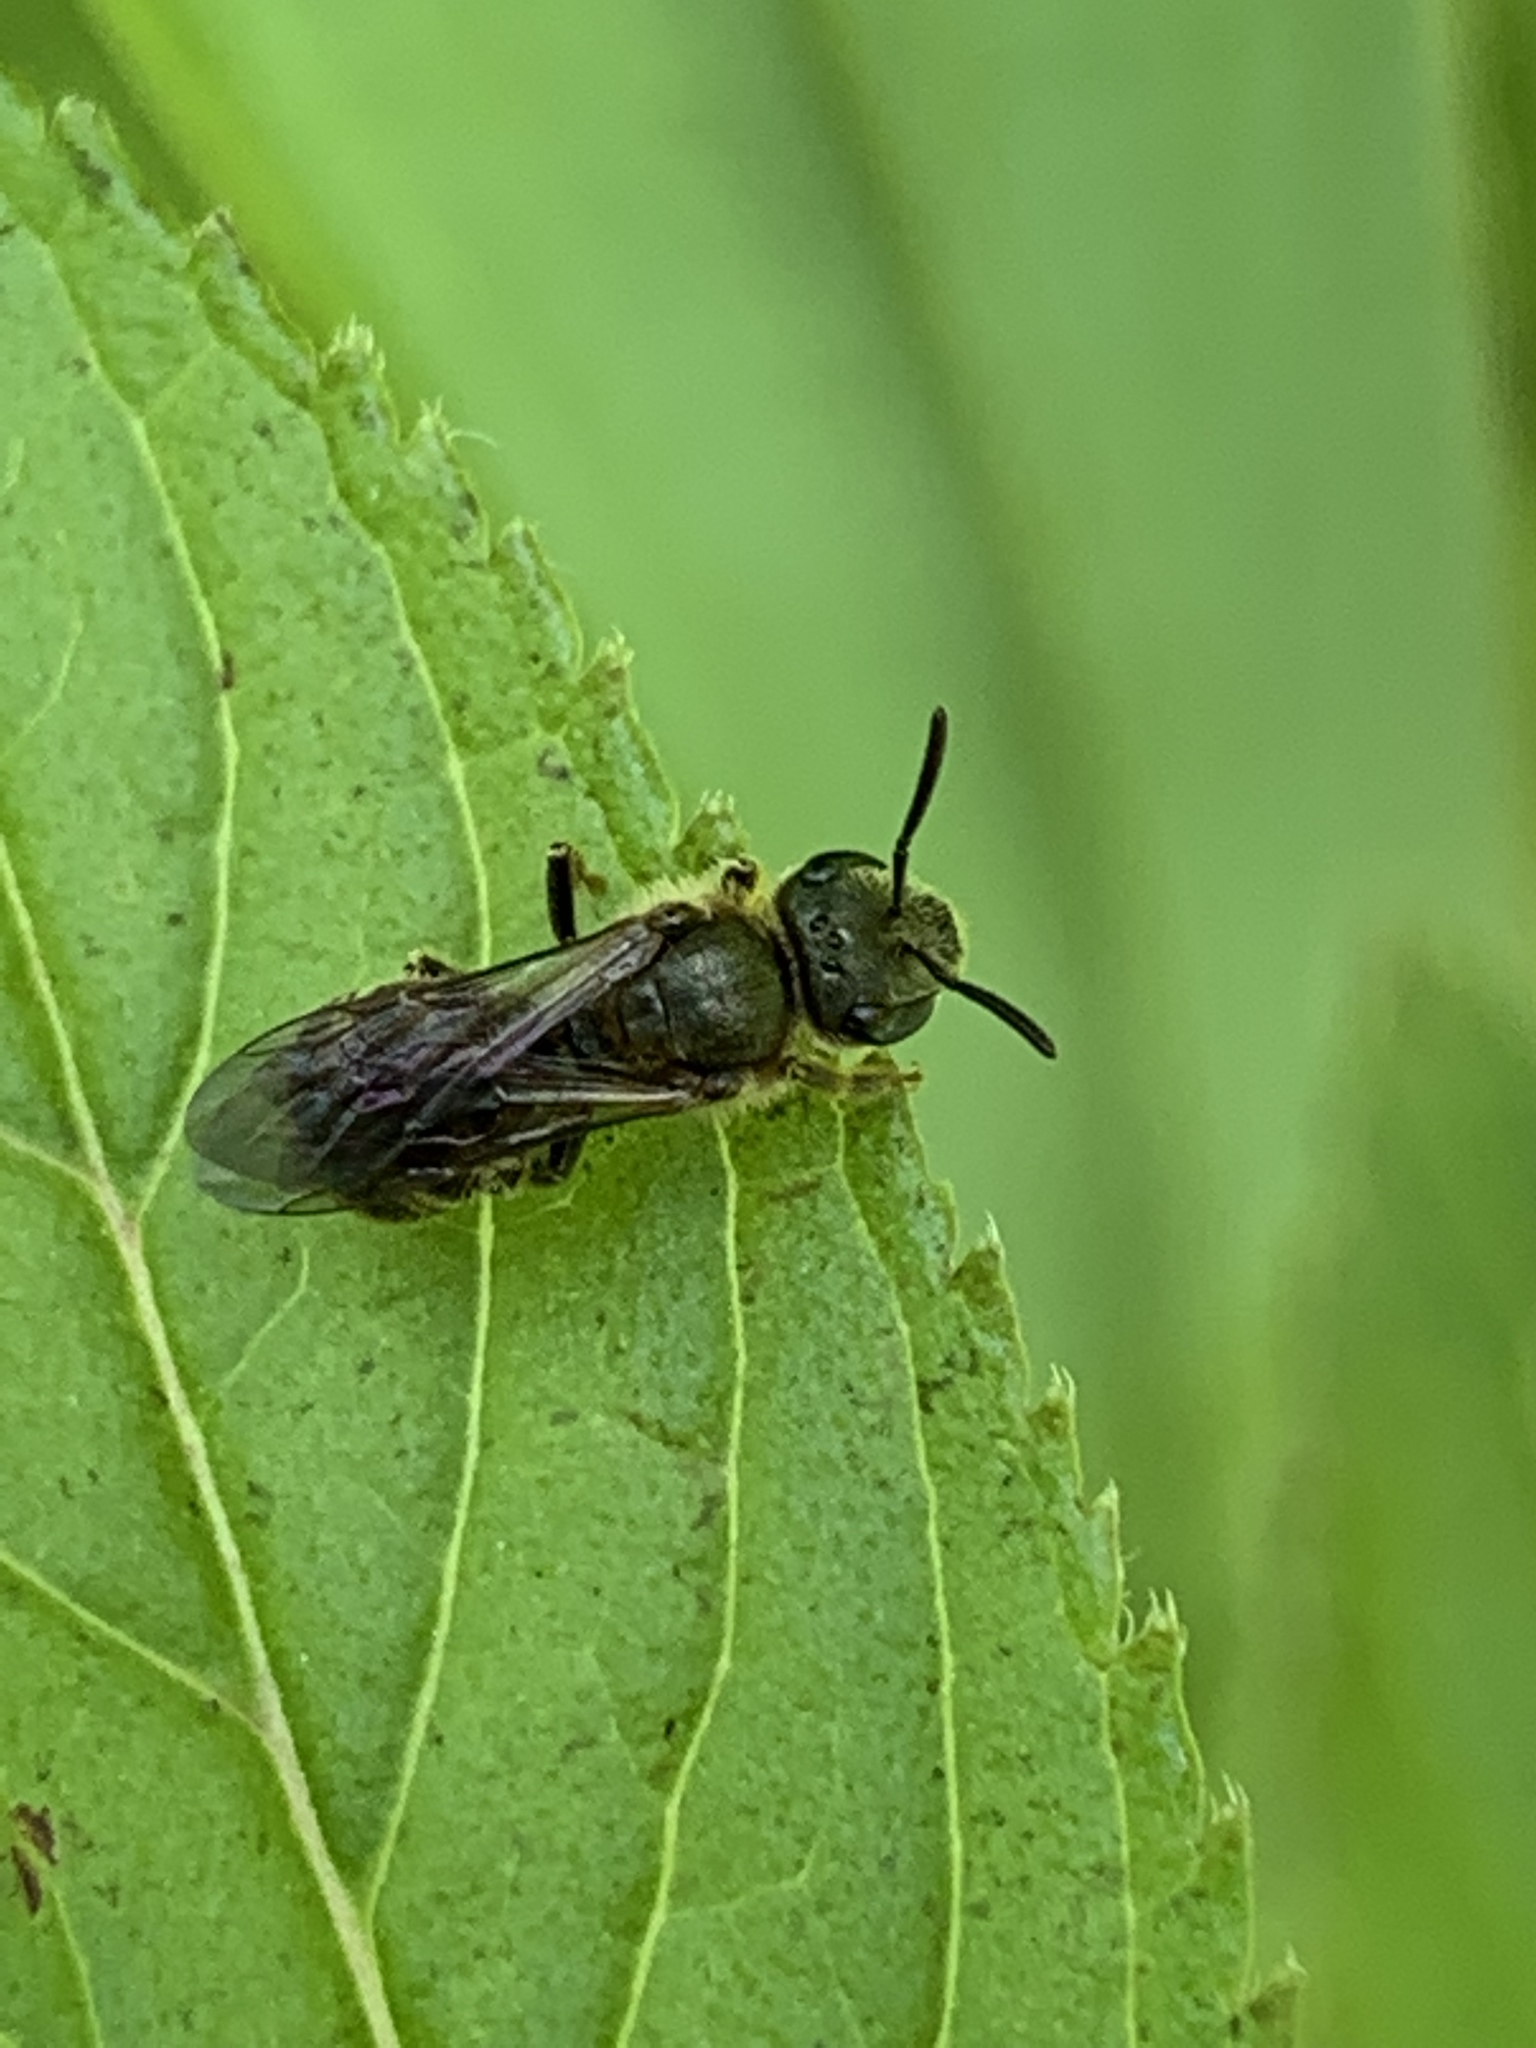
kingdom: Animalia
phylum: Arthropoda
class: Insecta
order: Hymenoptera
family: Halictidae
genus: Halictus
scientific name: Halictus confusus
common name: Southern bronze furrow bee
